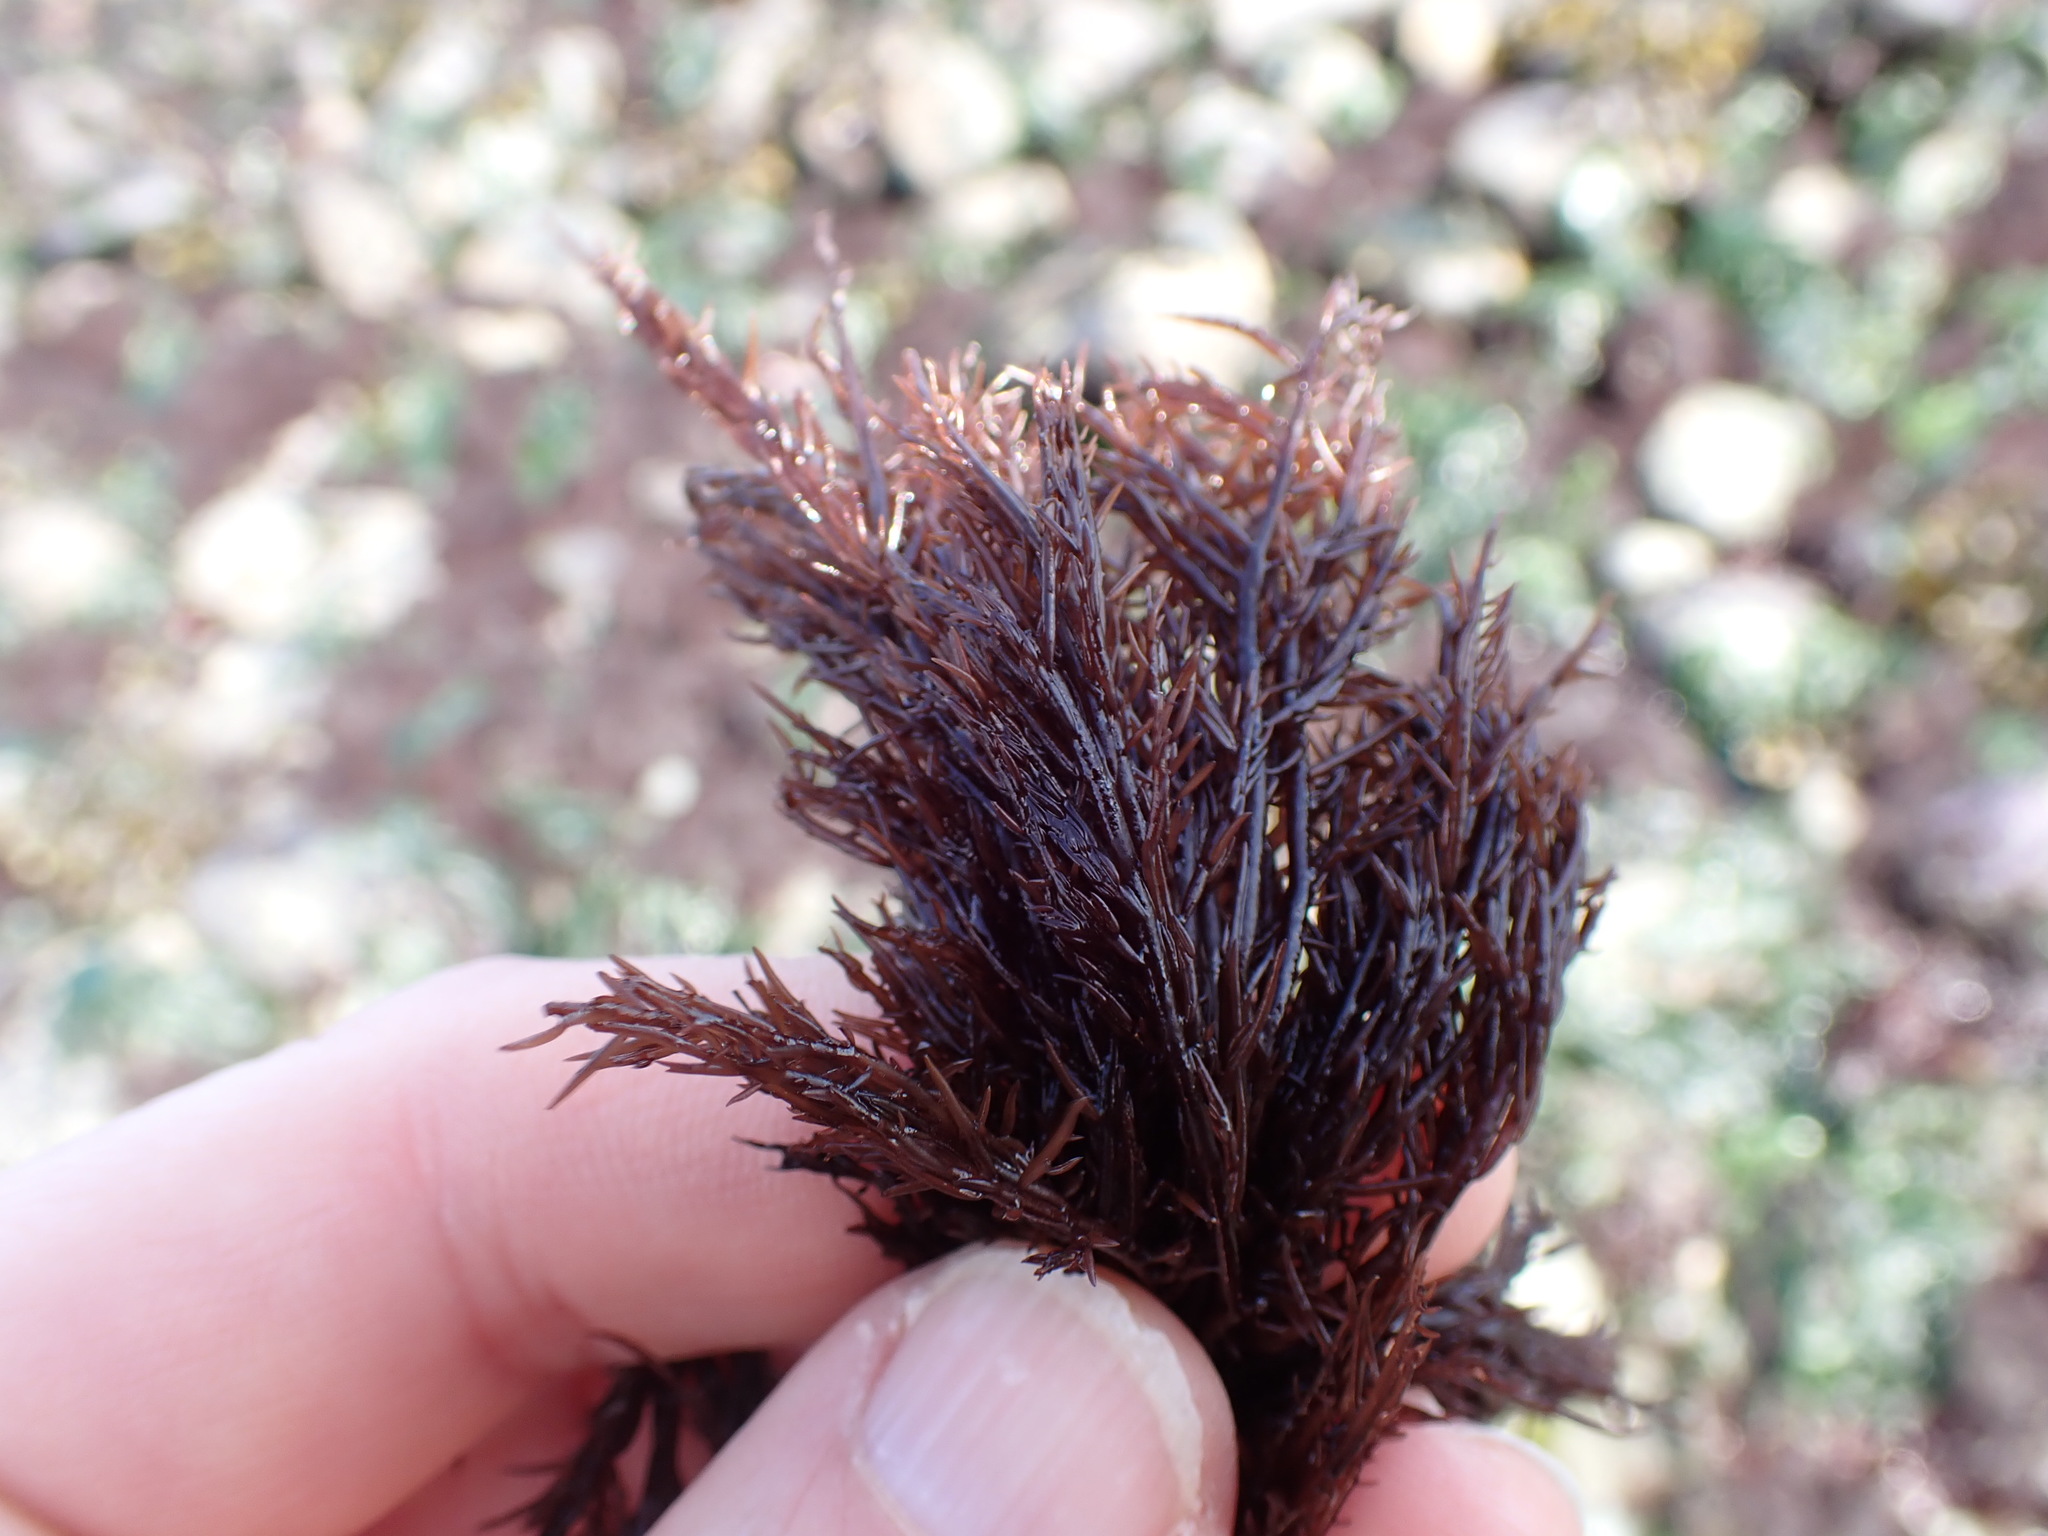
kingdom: Plantae
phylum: Rhodophyta
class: Florideophyceae
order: Gigartinales
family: Dumontiaceae
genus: Cryptosiphonia
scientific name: Cryptosiphonia woodii
